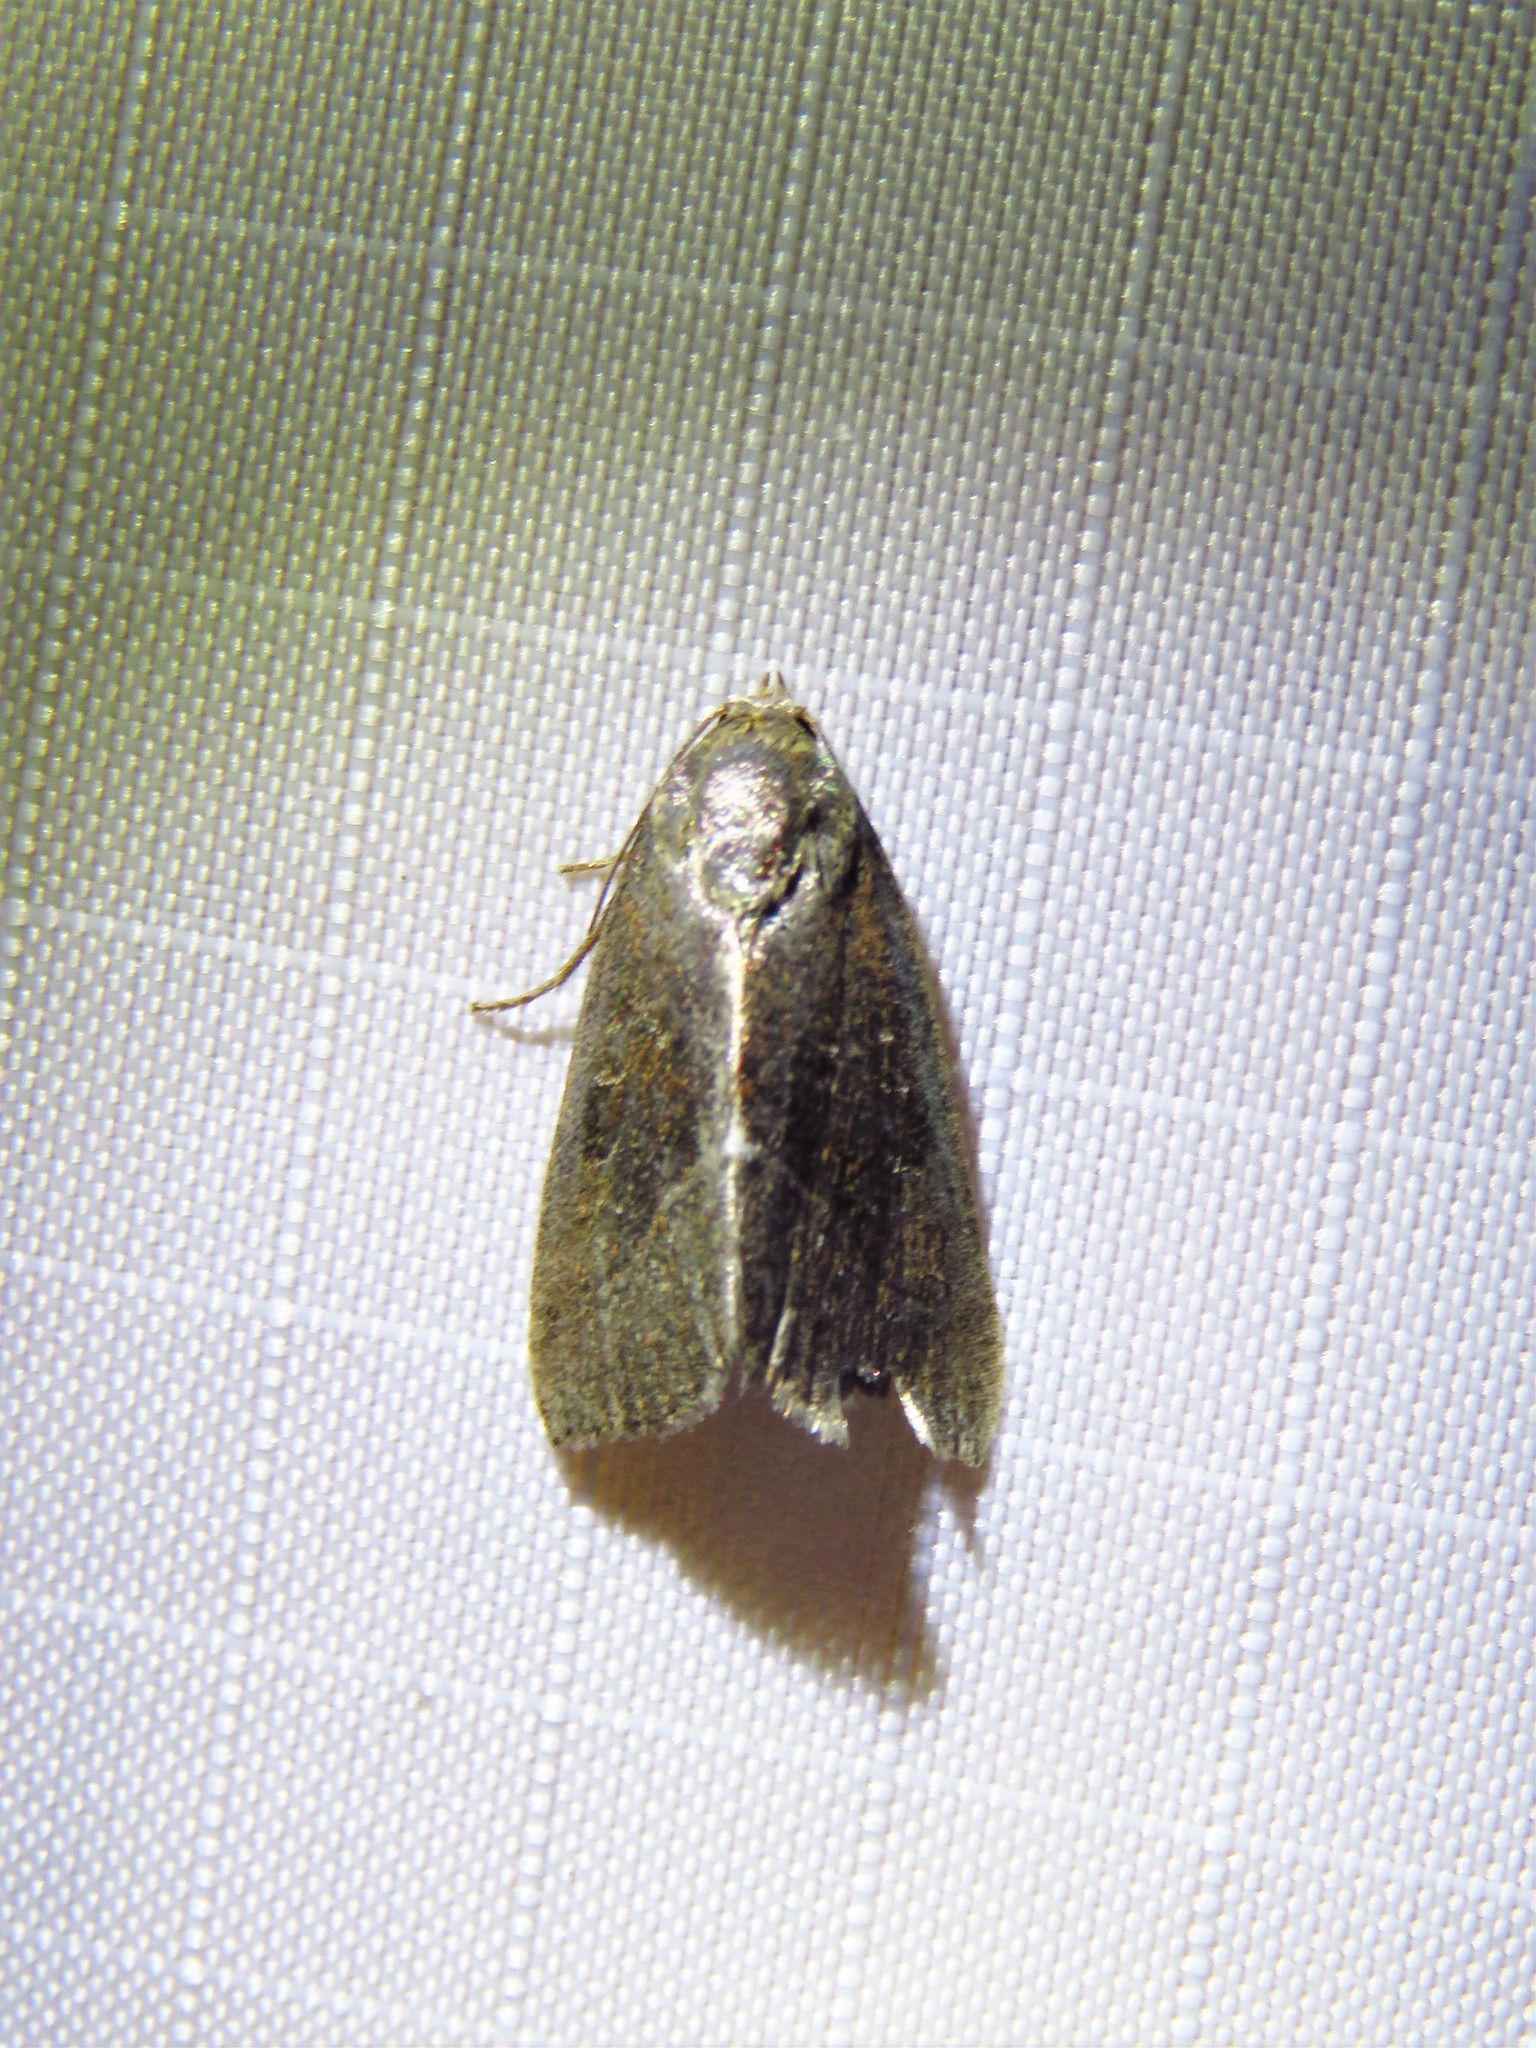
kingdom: Animalia
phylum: Arthropoda
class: Insecta
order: Lepidoptera
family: Noctuidae
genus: Galgula
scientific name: Galgula partita
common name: Wedgeling
